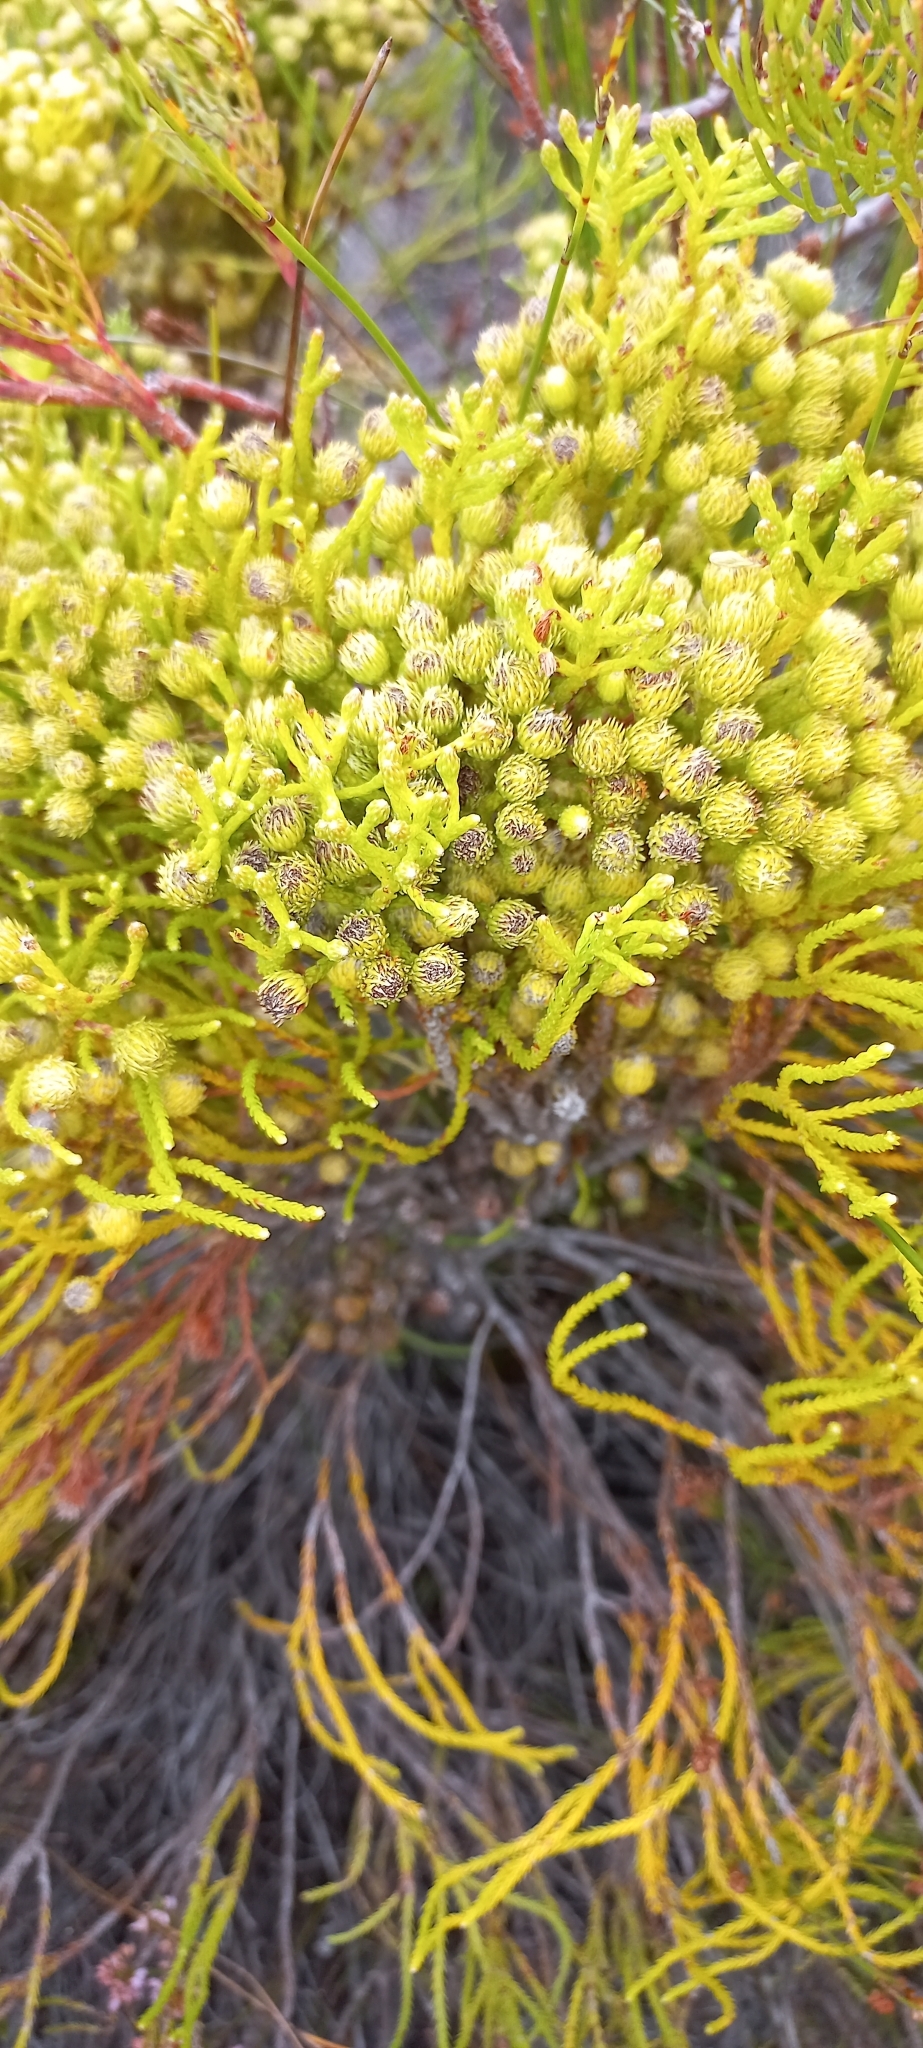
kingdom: Plantae
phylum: Tracheophyta
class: Magnoliopsida
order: Bruniales
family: Bruniaceae
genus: Brunia
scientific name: Brunia paleacea
